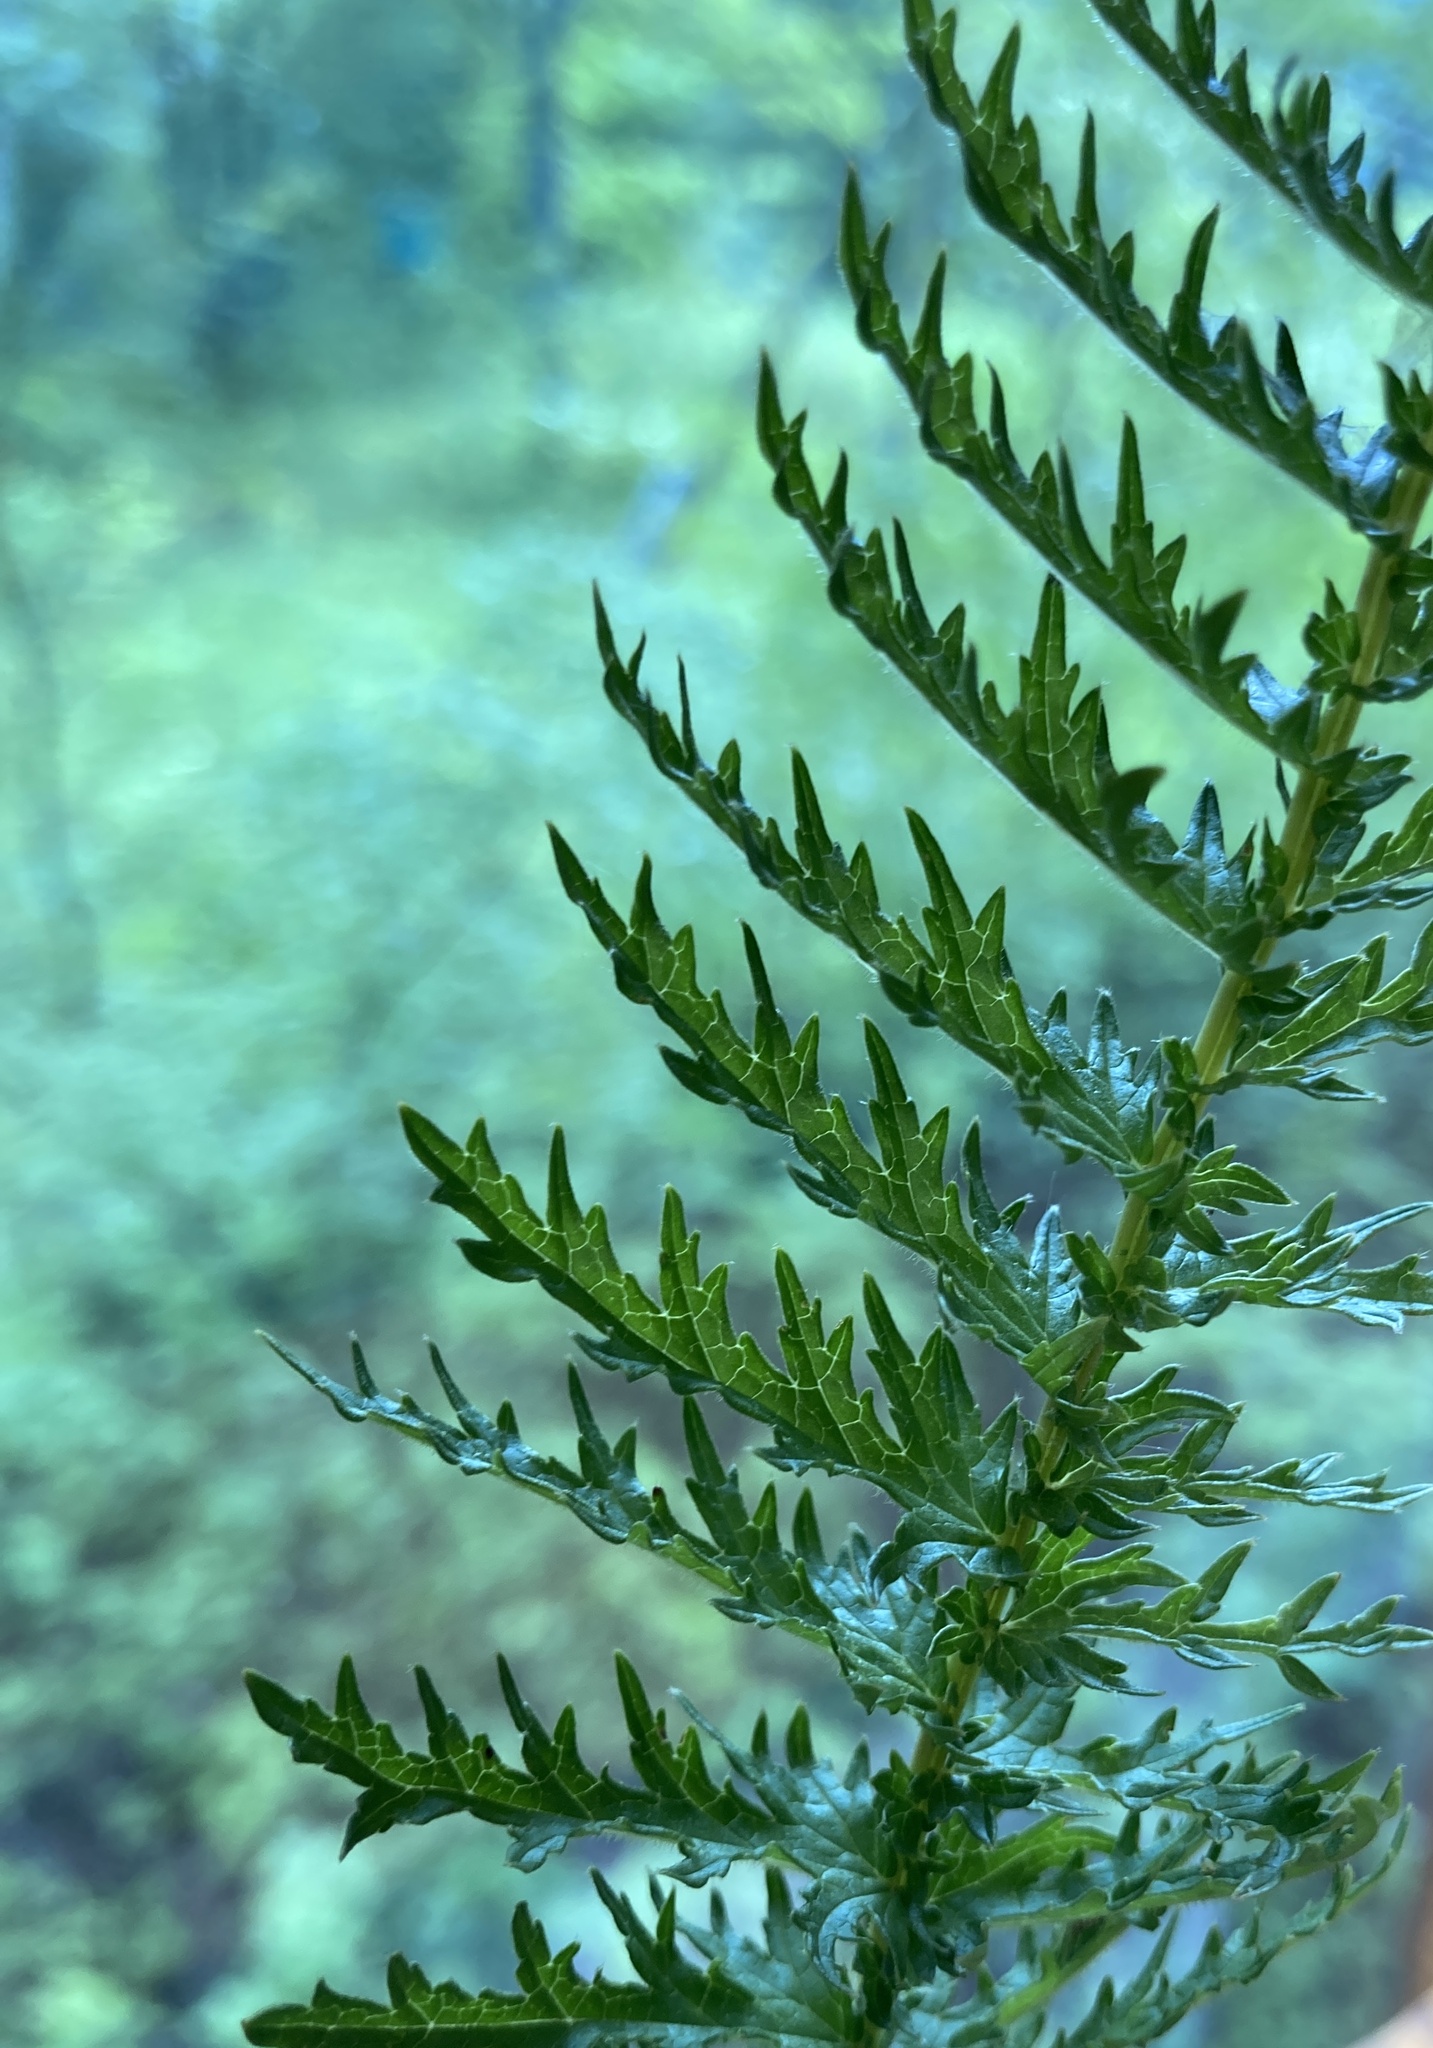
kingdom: Plantae
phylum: Tracheophyta
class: Magnoliopsida
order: Rosales
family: Rosaceae
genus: Filipendula
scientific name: Filipendula vulgaris
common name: Dropwort
